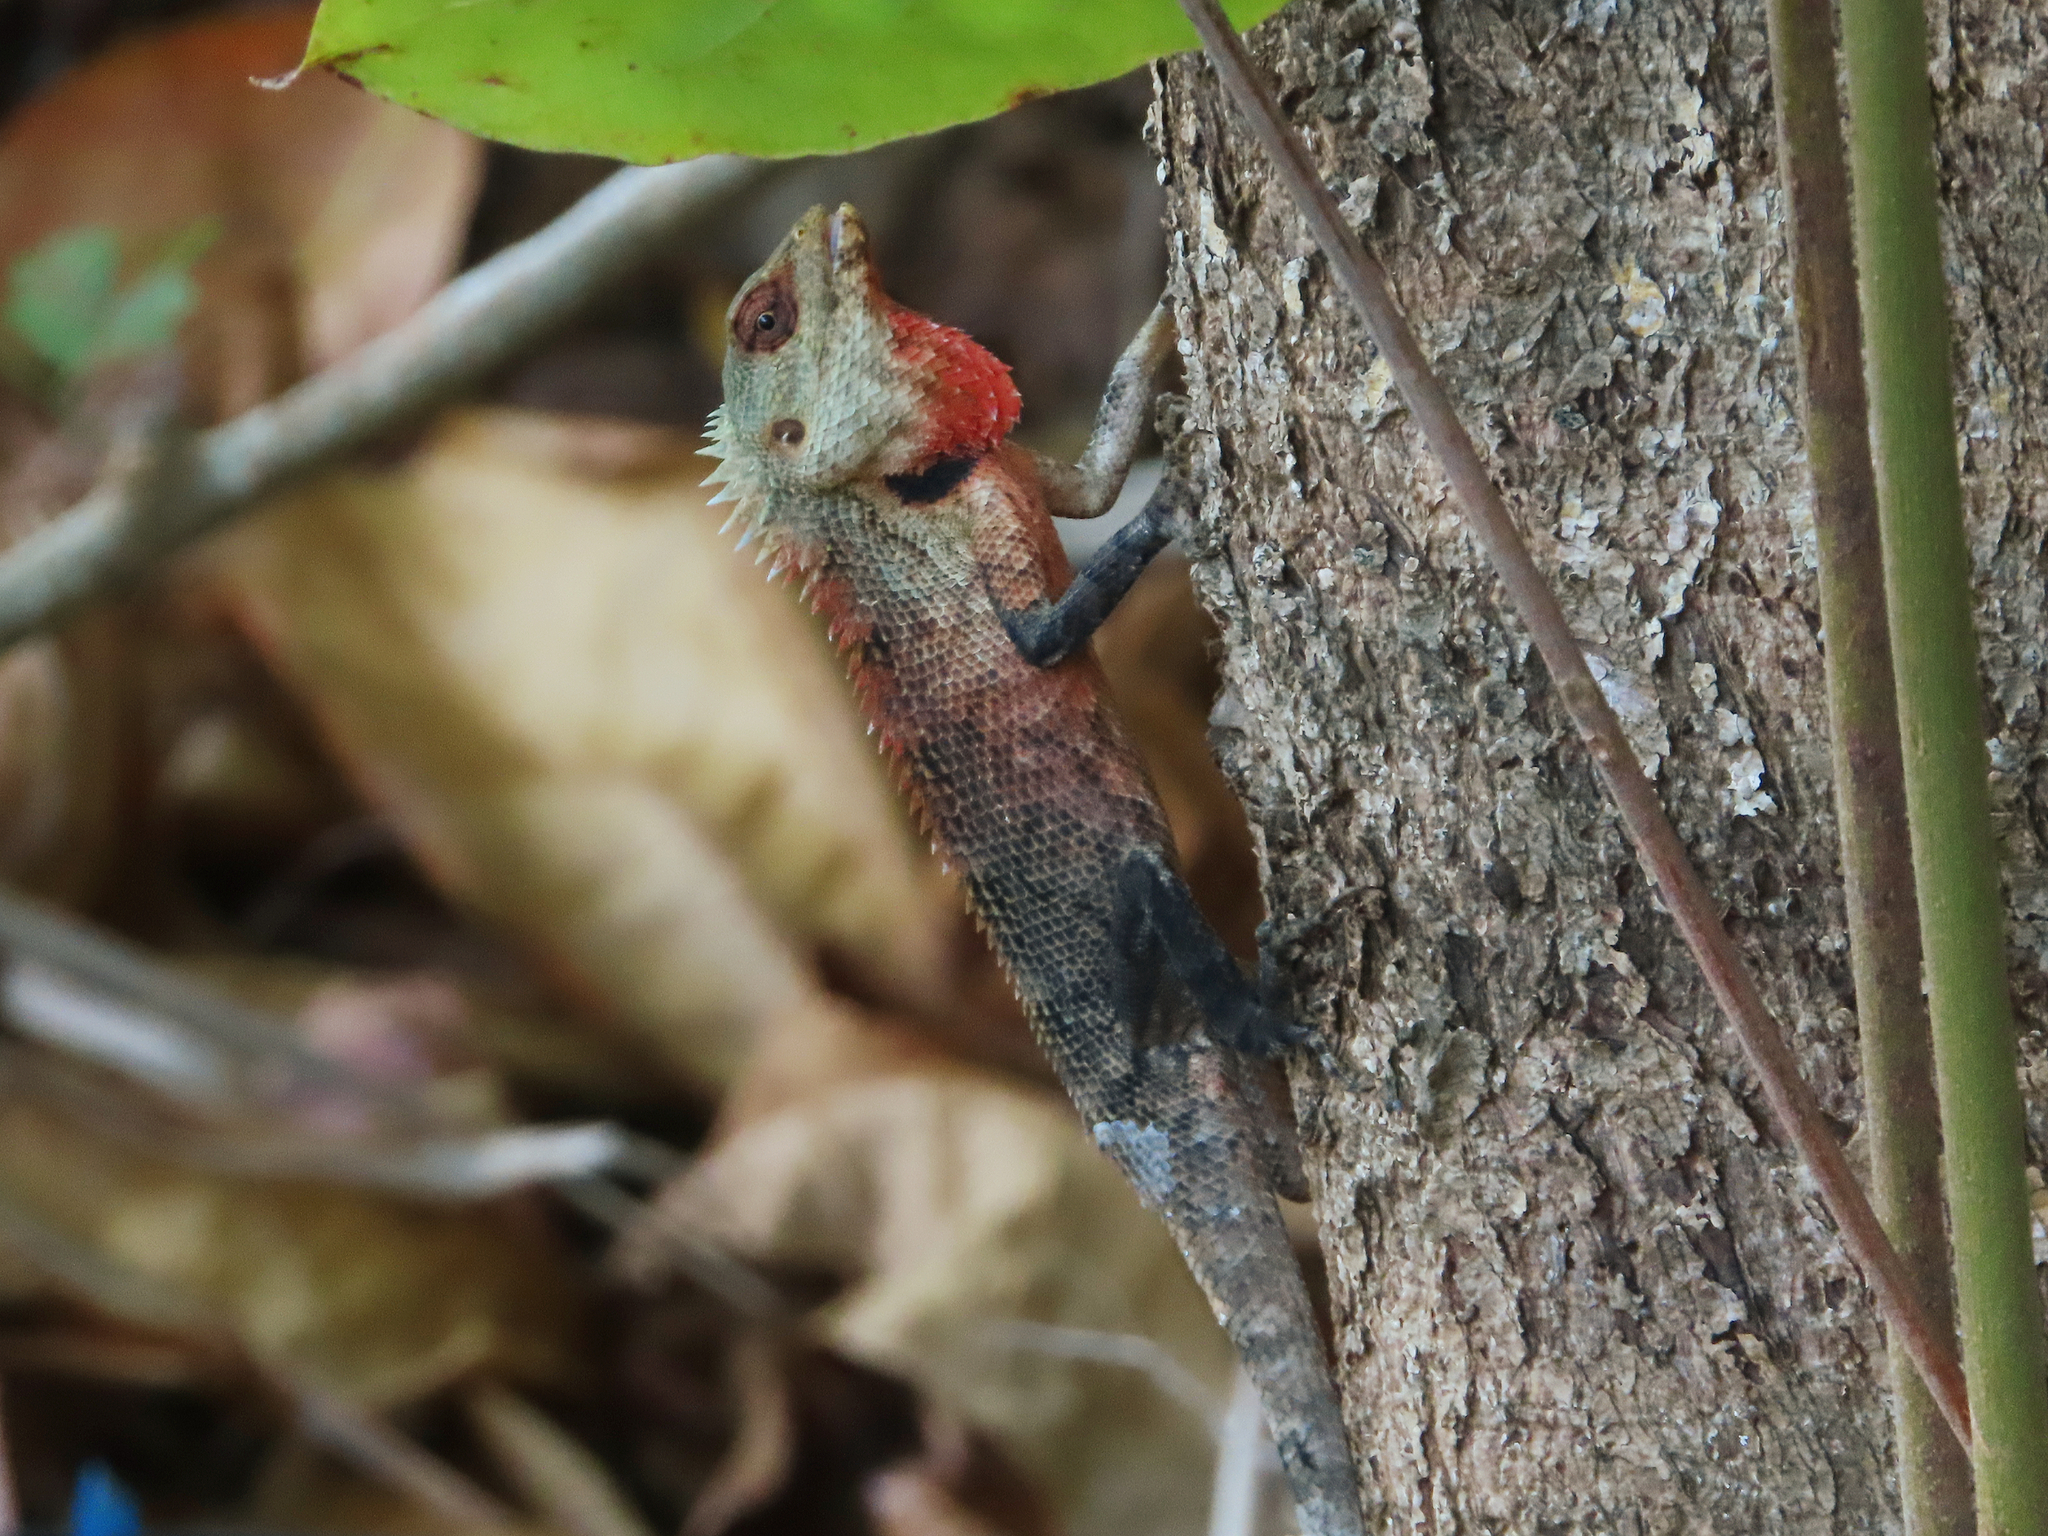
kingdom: Animalia
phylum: Chordata
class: Squamata
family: Agamidae
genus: Calotes
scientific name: Calotes versicolor
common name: Oriental garden lizard
